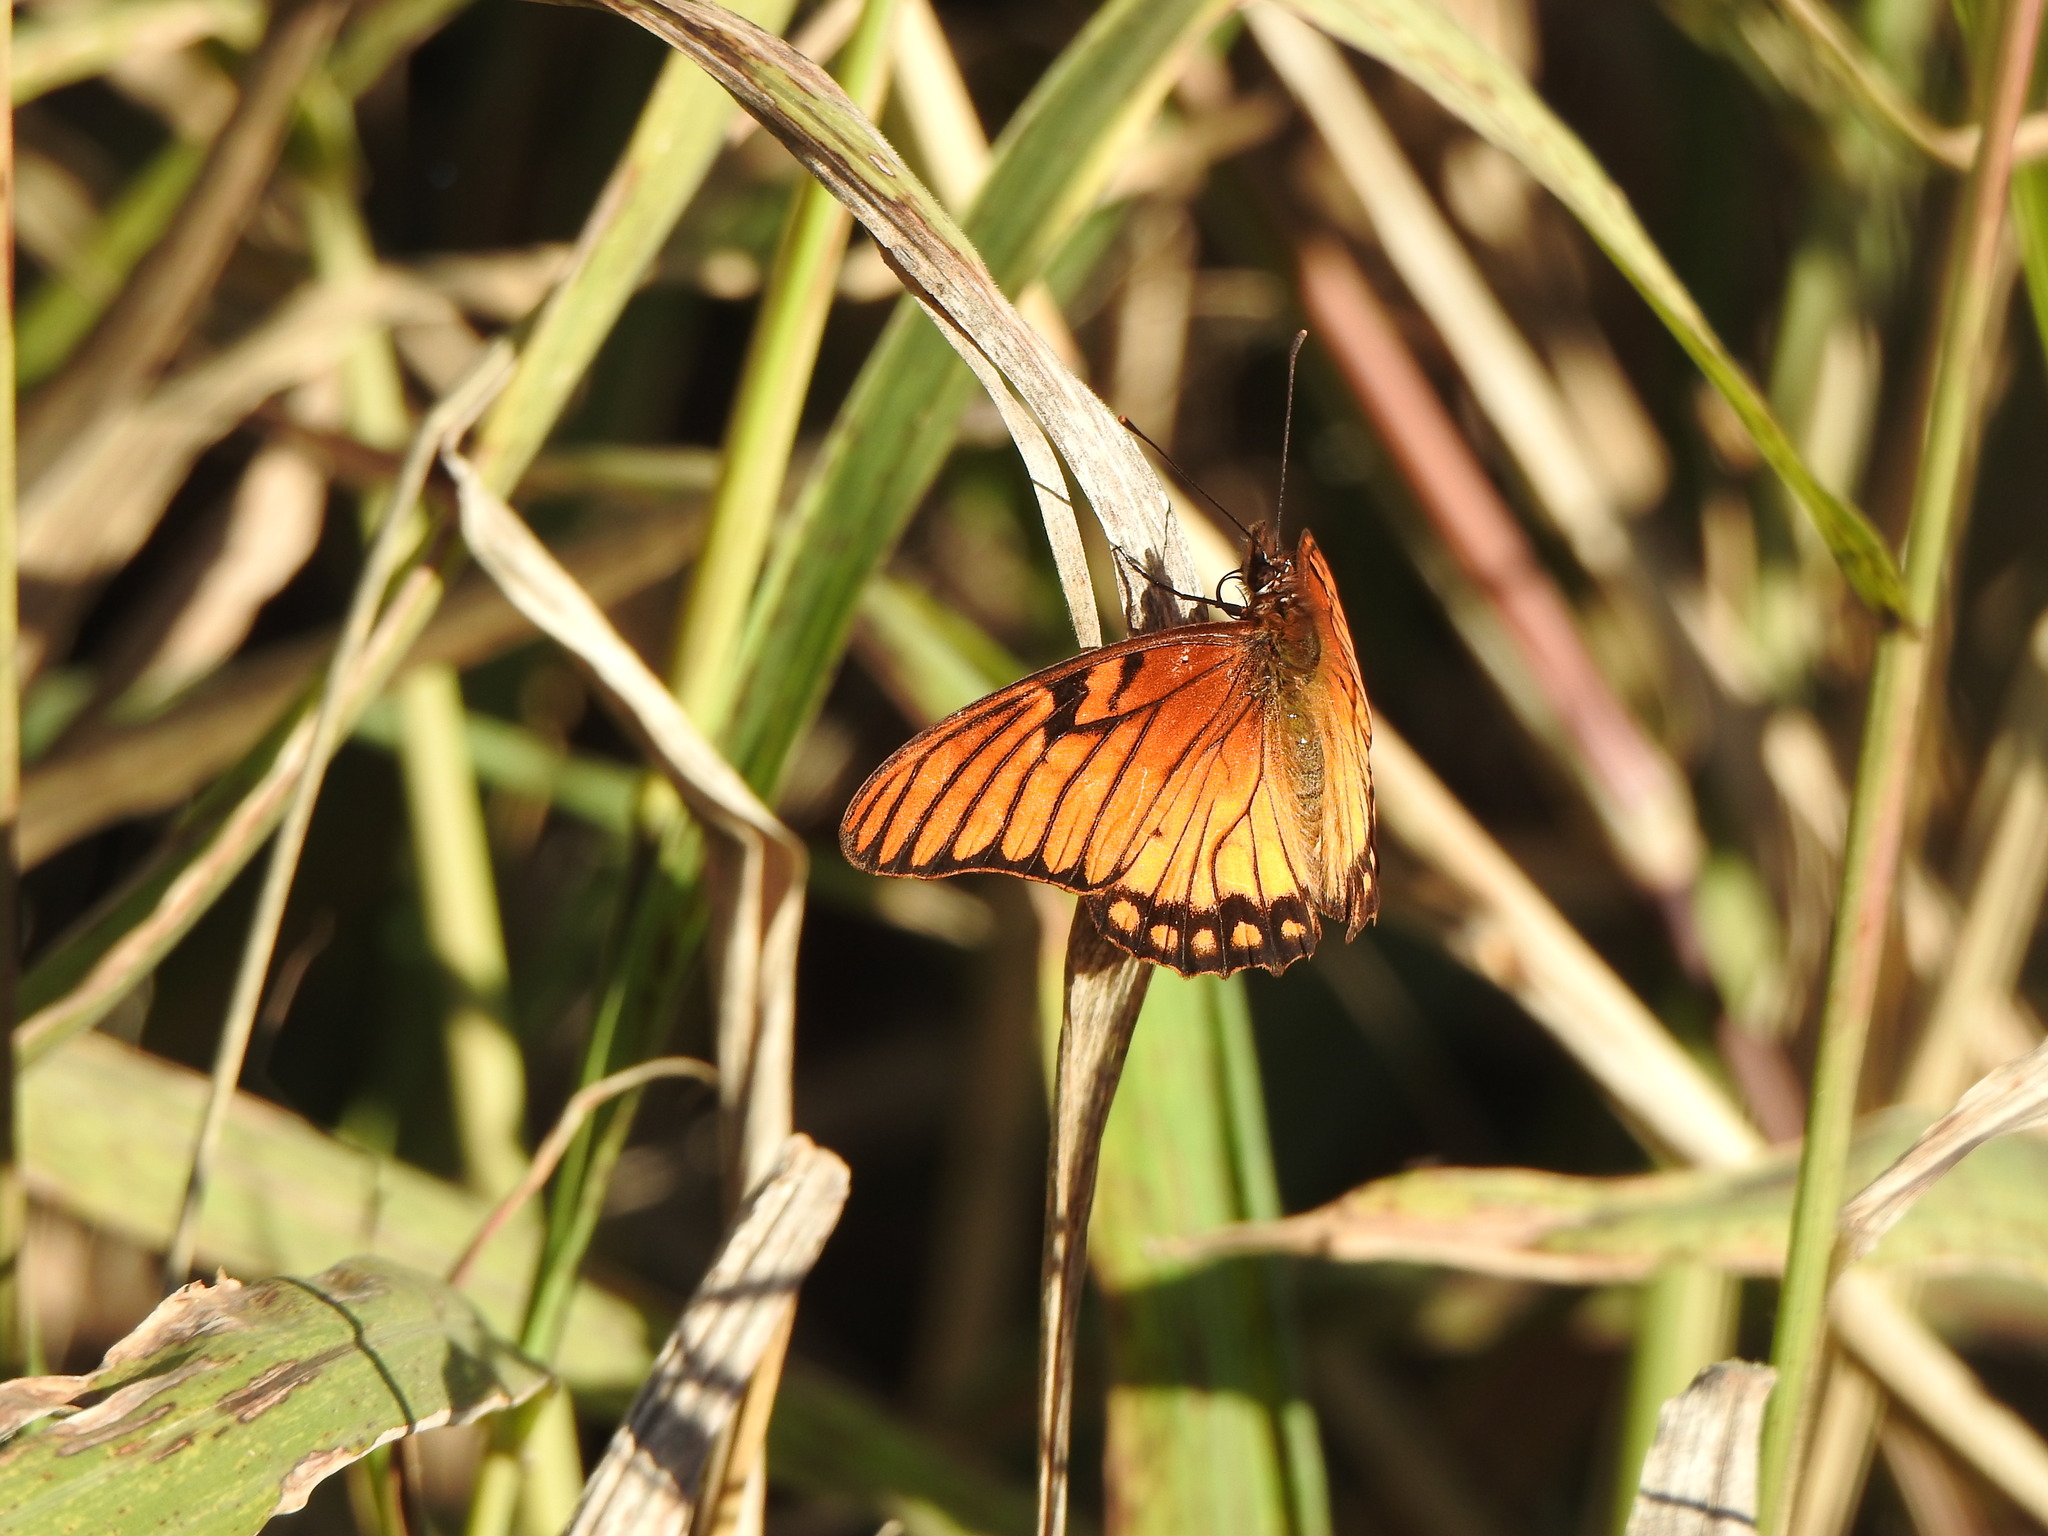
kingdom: Animalia
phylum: Arthropoda
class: Insecta
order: Lepidoptera
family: Nymphalidae
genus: Dione
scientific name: Dione moneta
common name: Mexican silverspot
